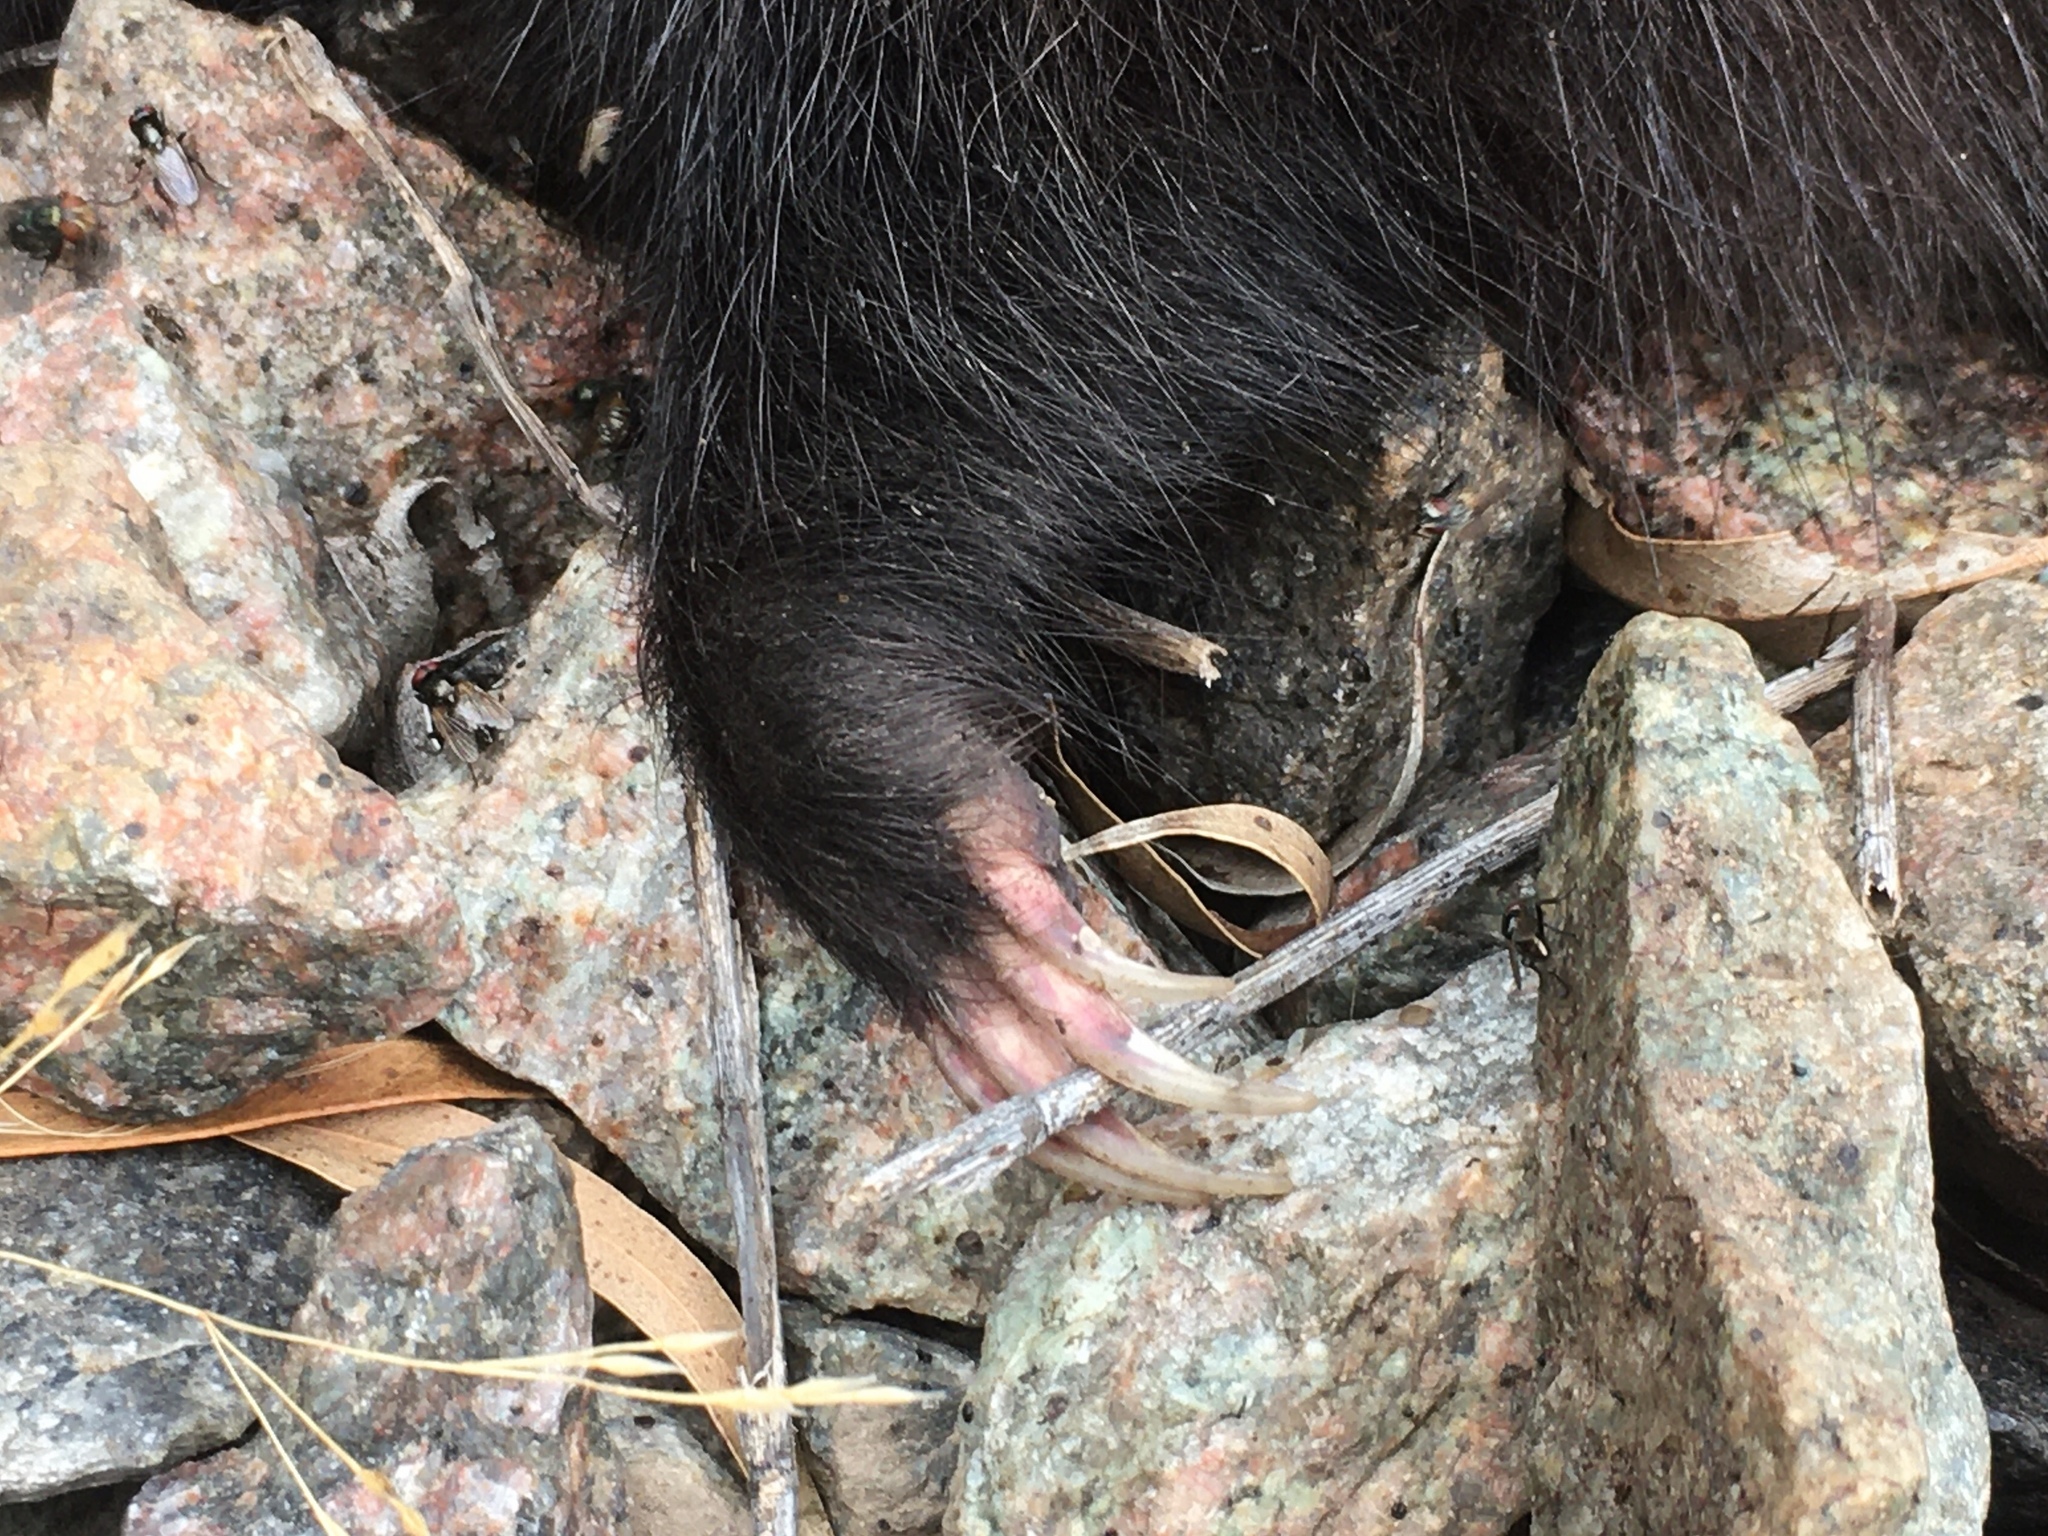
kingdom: Animalia
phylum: Chordata
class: Mammalia
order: Carnivora
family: Mephitidae
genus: Conepatus
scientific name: Conepatus chinga
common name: Molina's hog-nosed skunk
